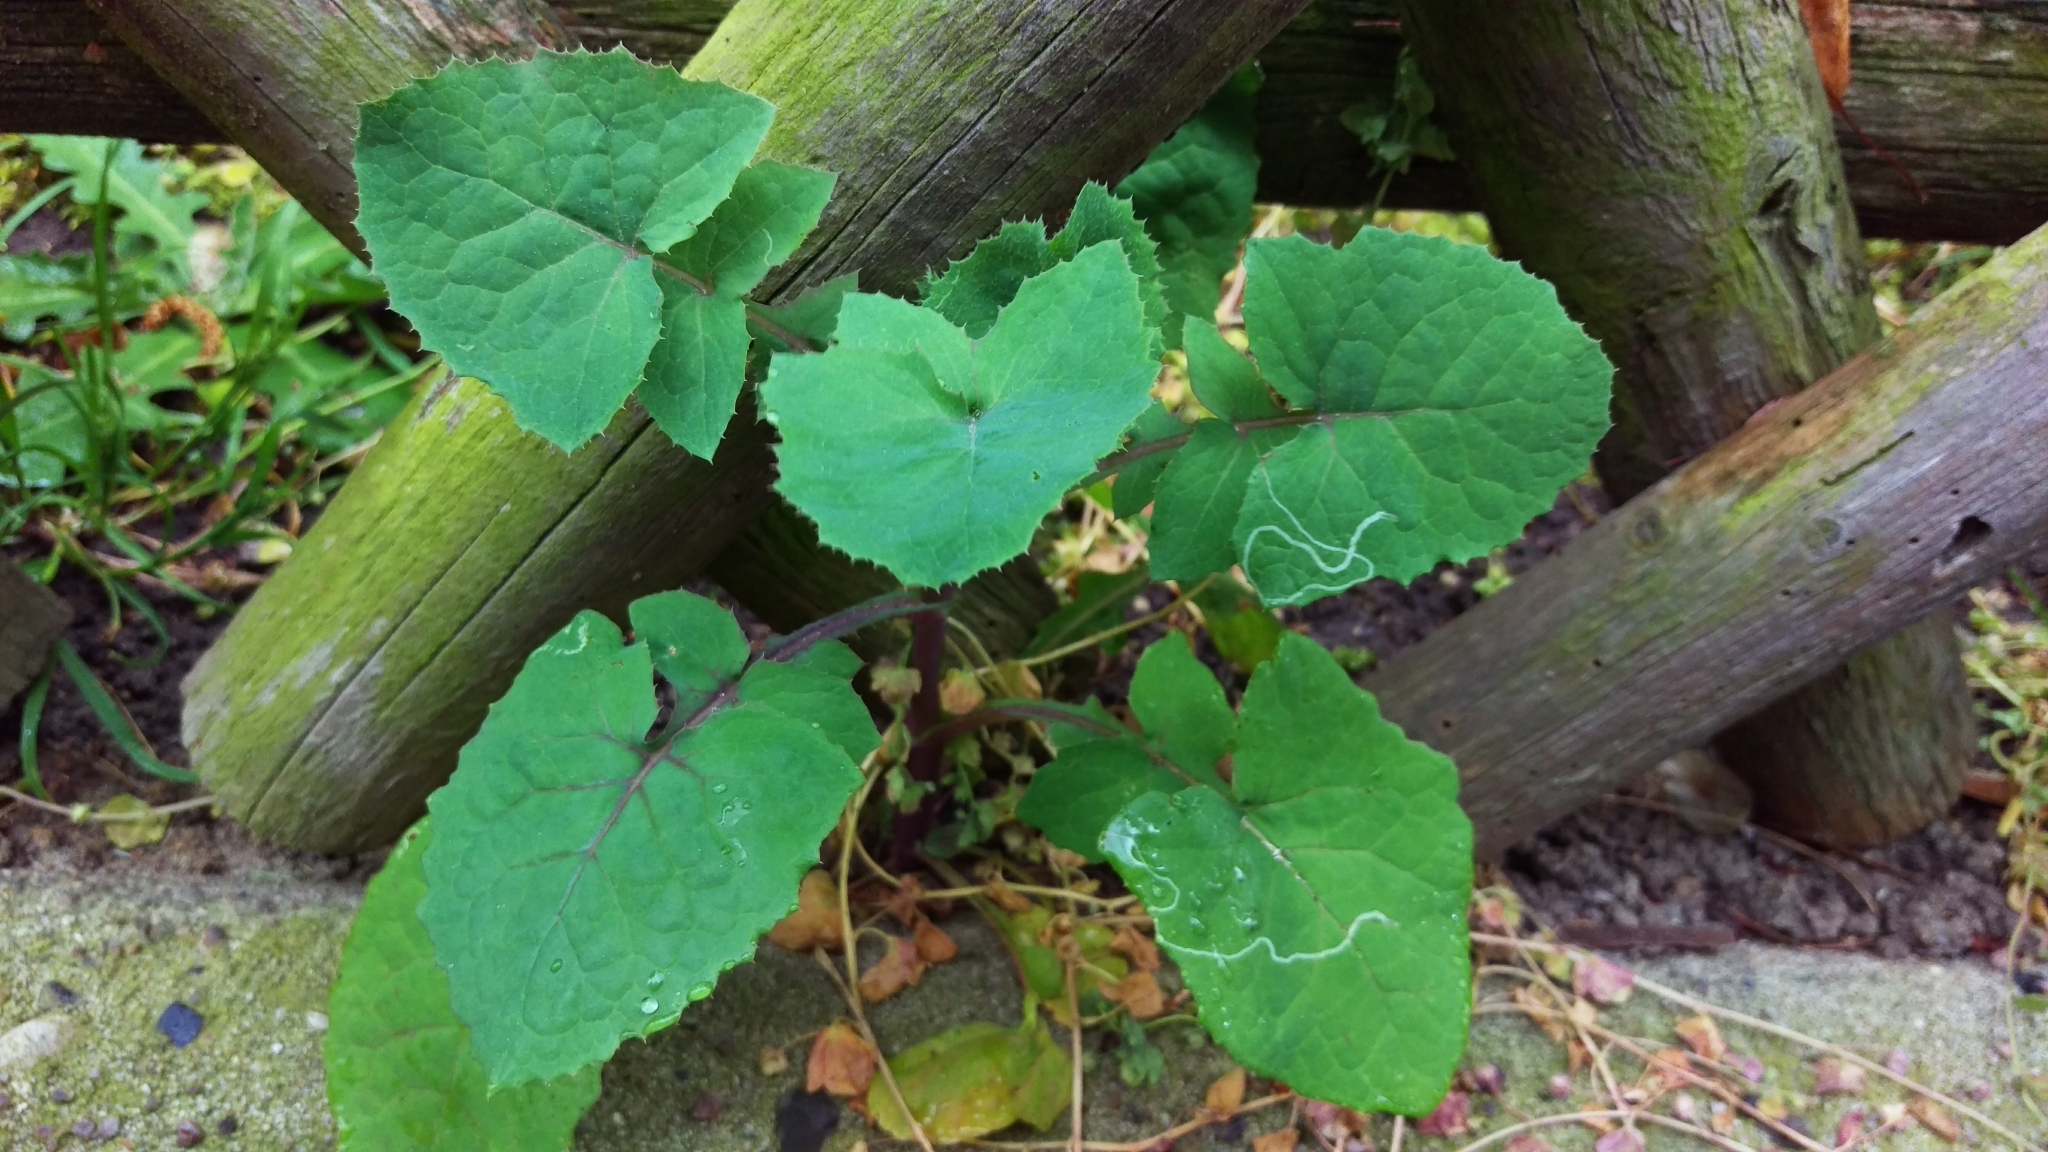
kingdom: Plantae
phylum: Tracheophyta
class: Magnoliopsida
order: Asterales
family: Asteraceae
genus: Sonchus
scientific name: Sonchus oleraceus
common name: Common sowthistle
